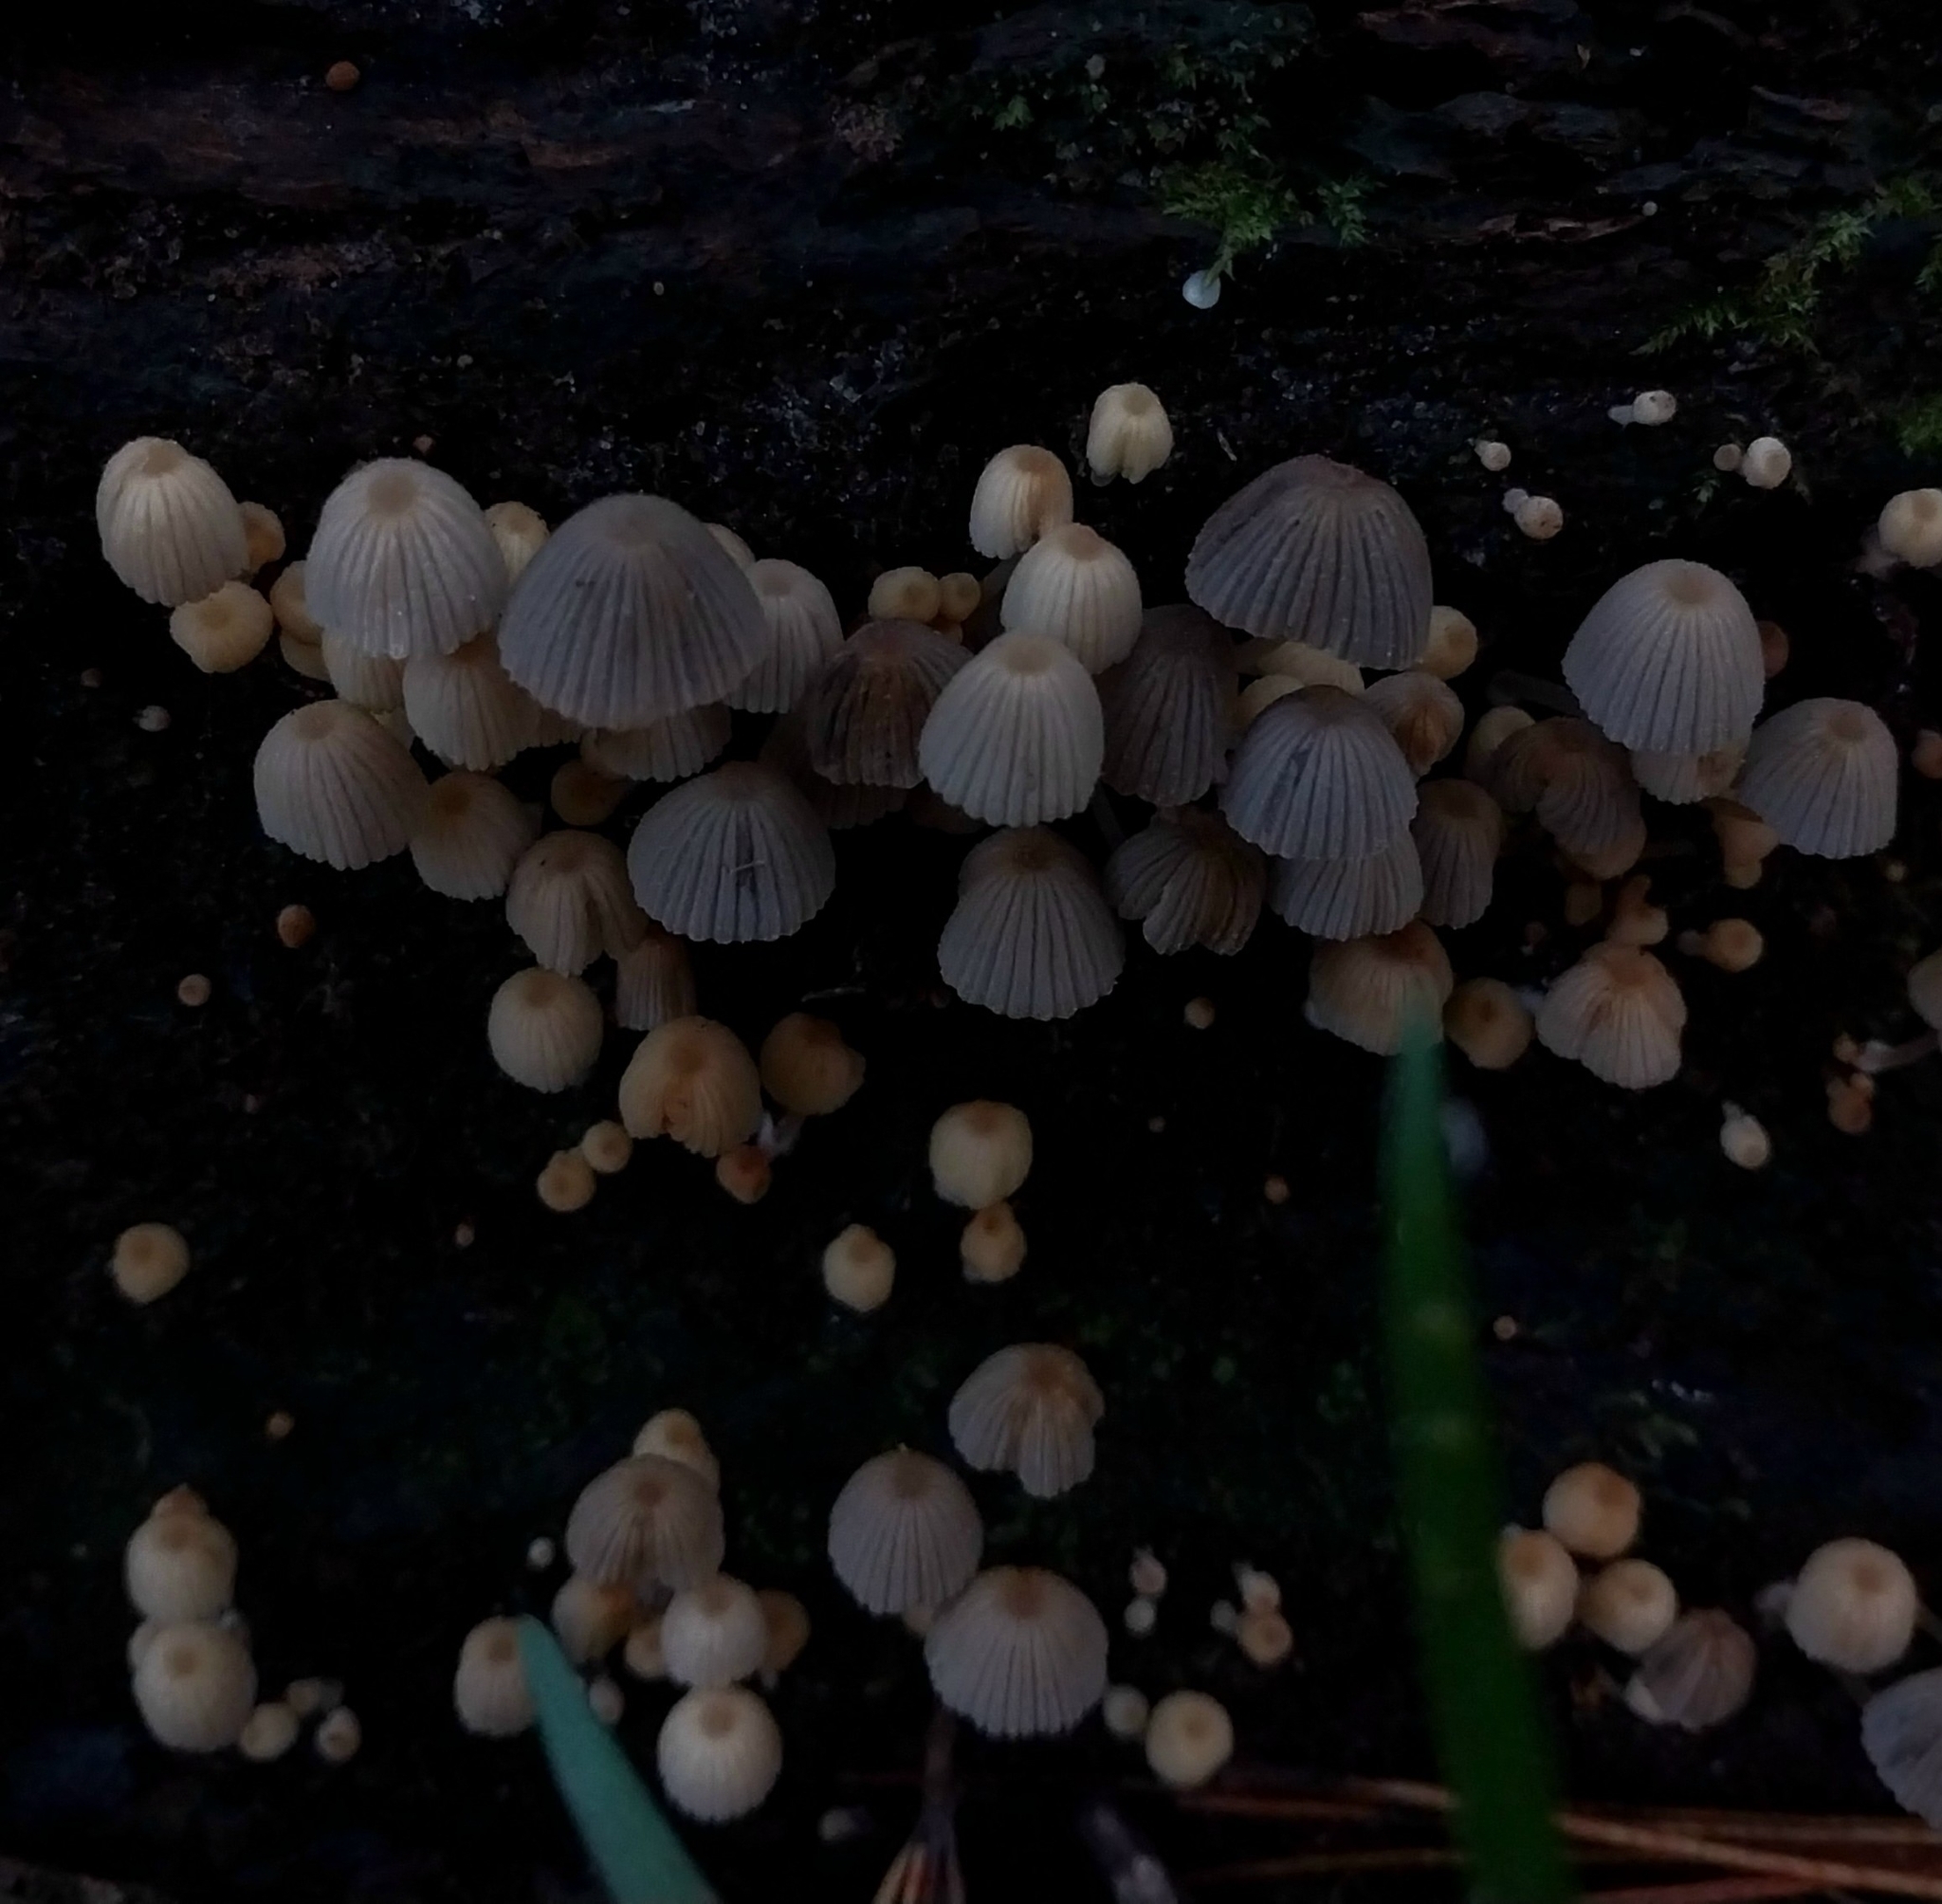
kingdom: Fungi
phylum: Basidiomycota
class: Agaricomycetes
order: Agaricales
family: Psathyrellaceae
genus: Coprinellus
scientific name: Coprinellus disseminatus
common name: Fairies' bonnets
